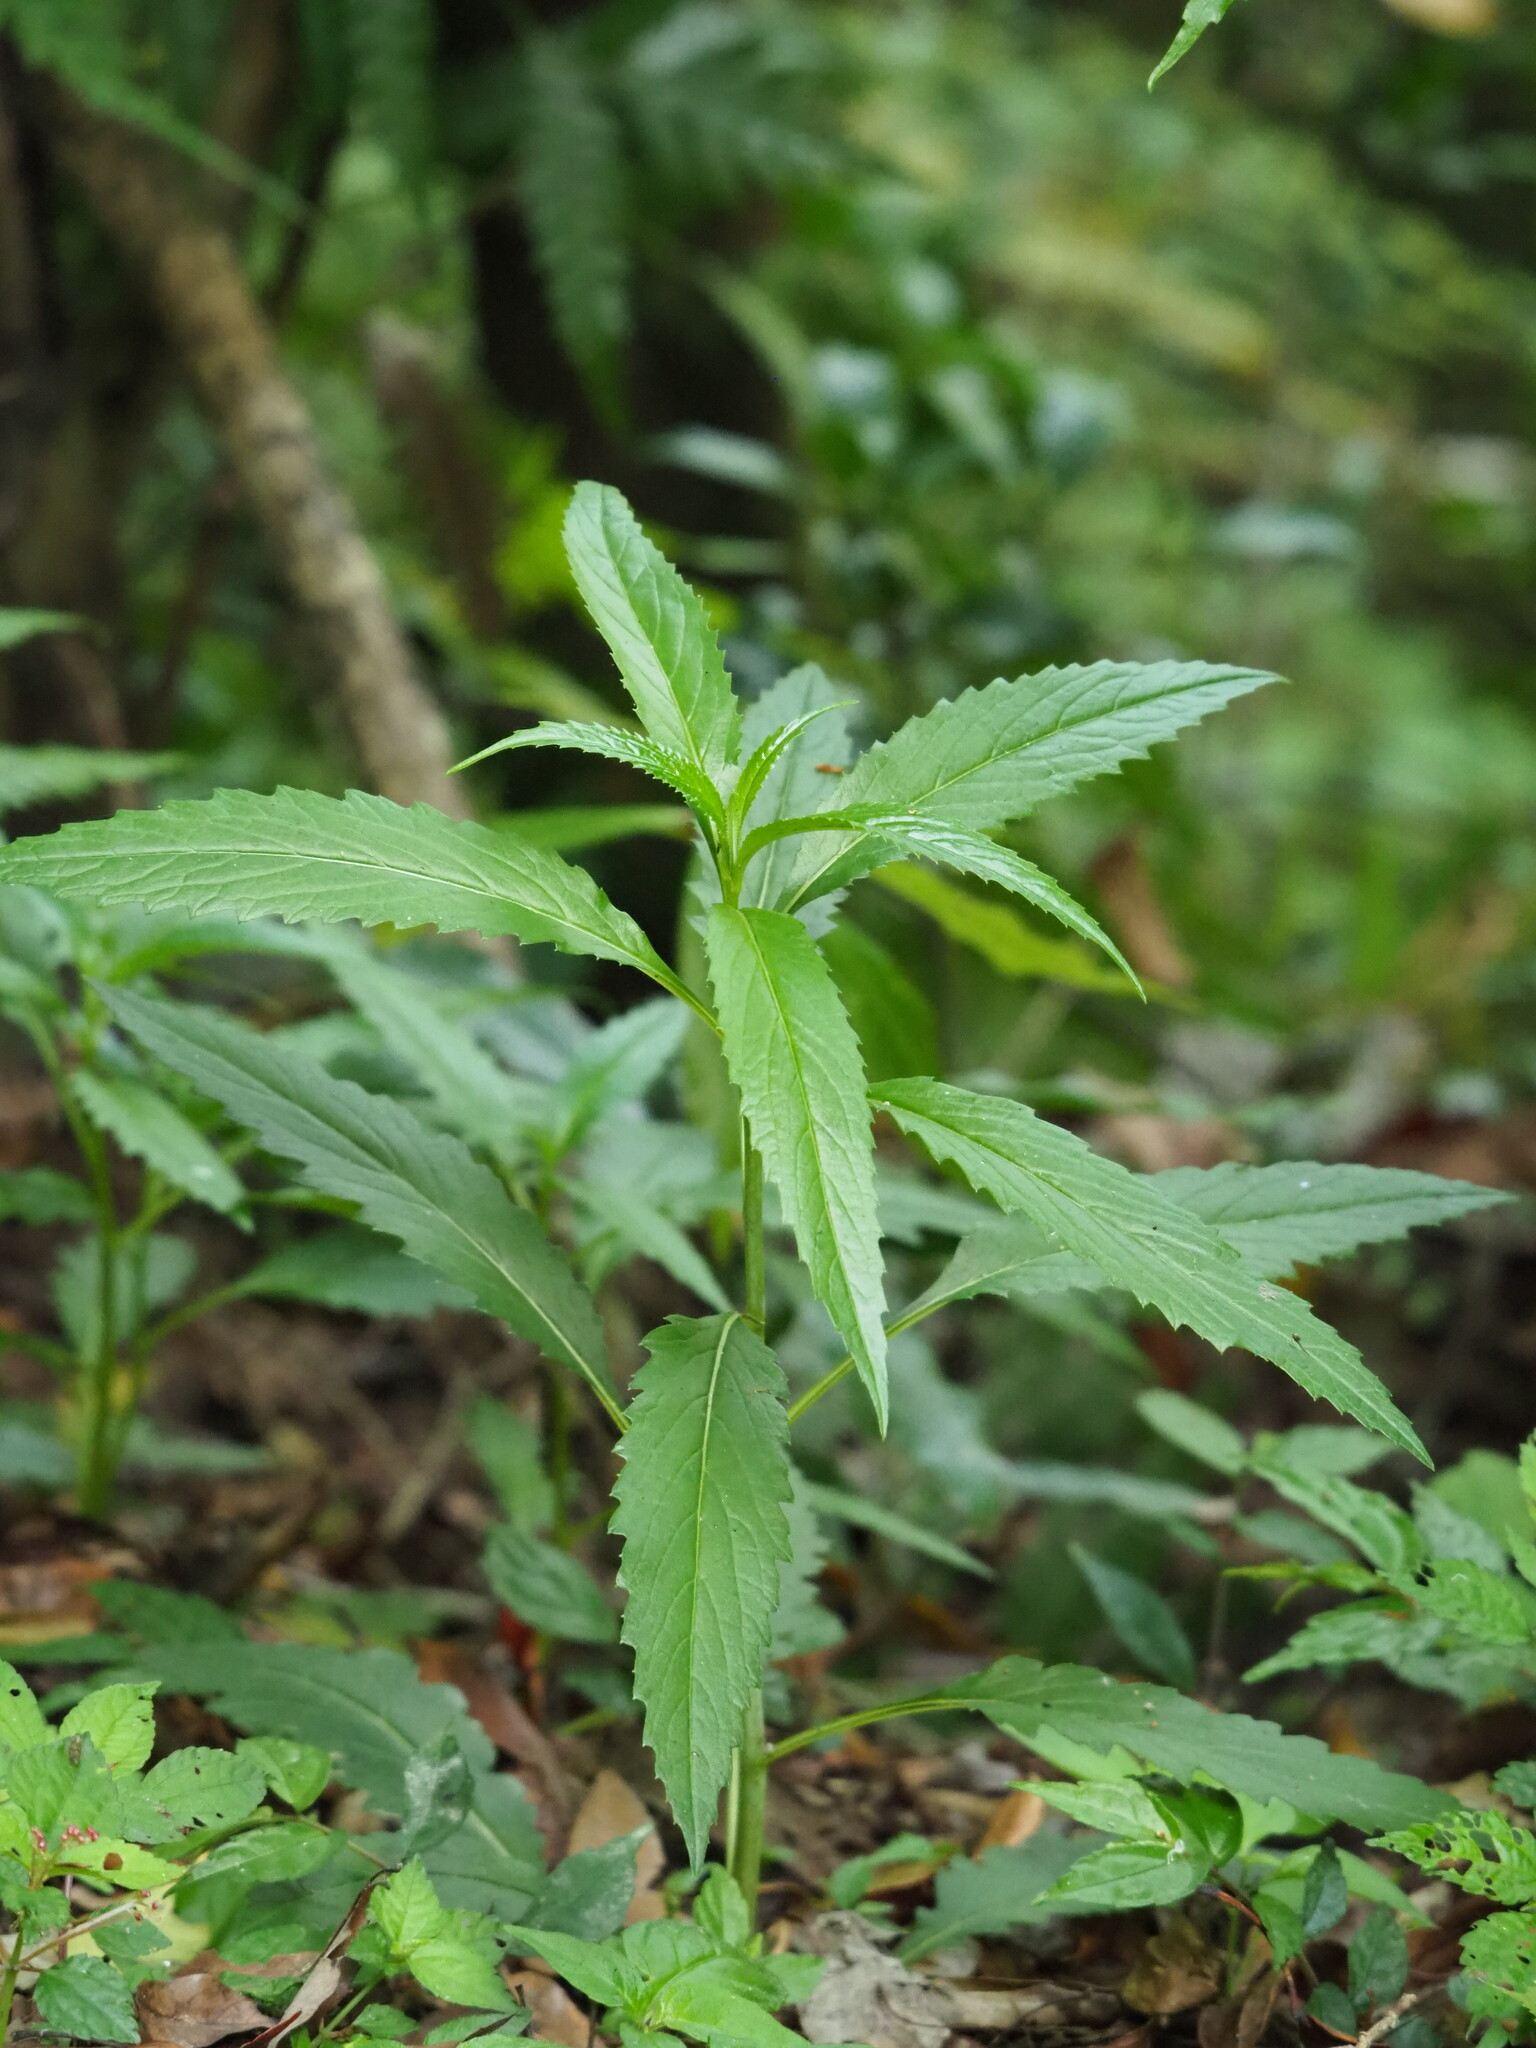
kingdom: Plantae
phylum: Tracheophyta
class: Magnoliopsida
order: Asterales
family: Asteraceae
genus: Senecio
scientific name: Senecio nemorensis
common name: Alpine ragwort
